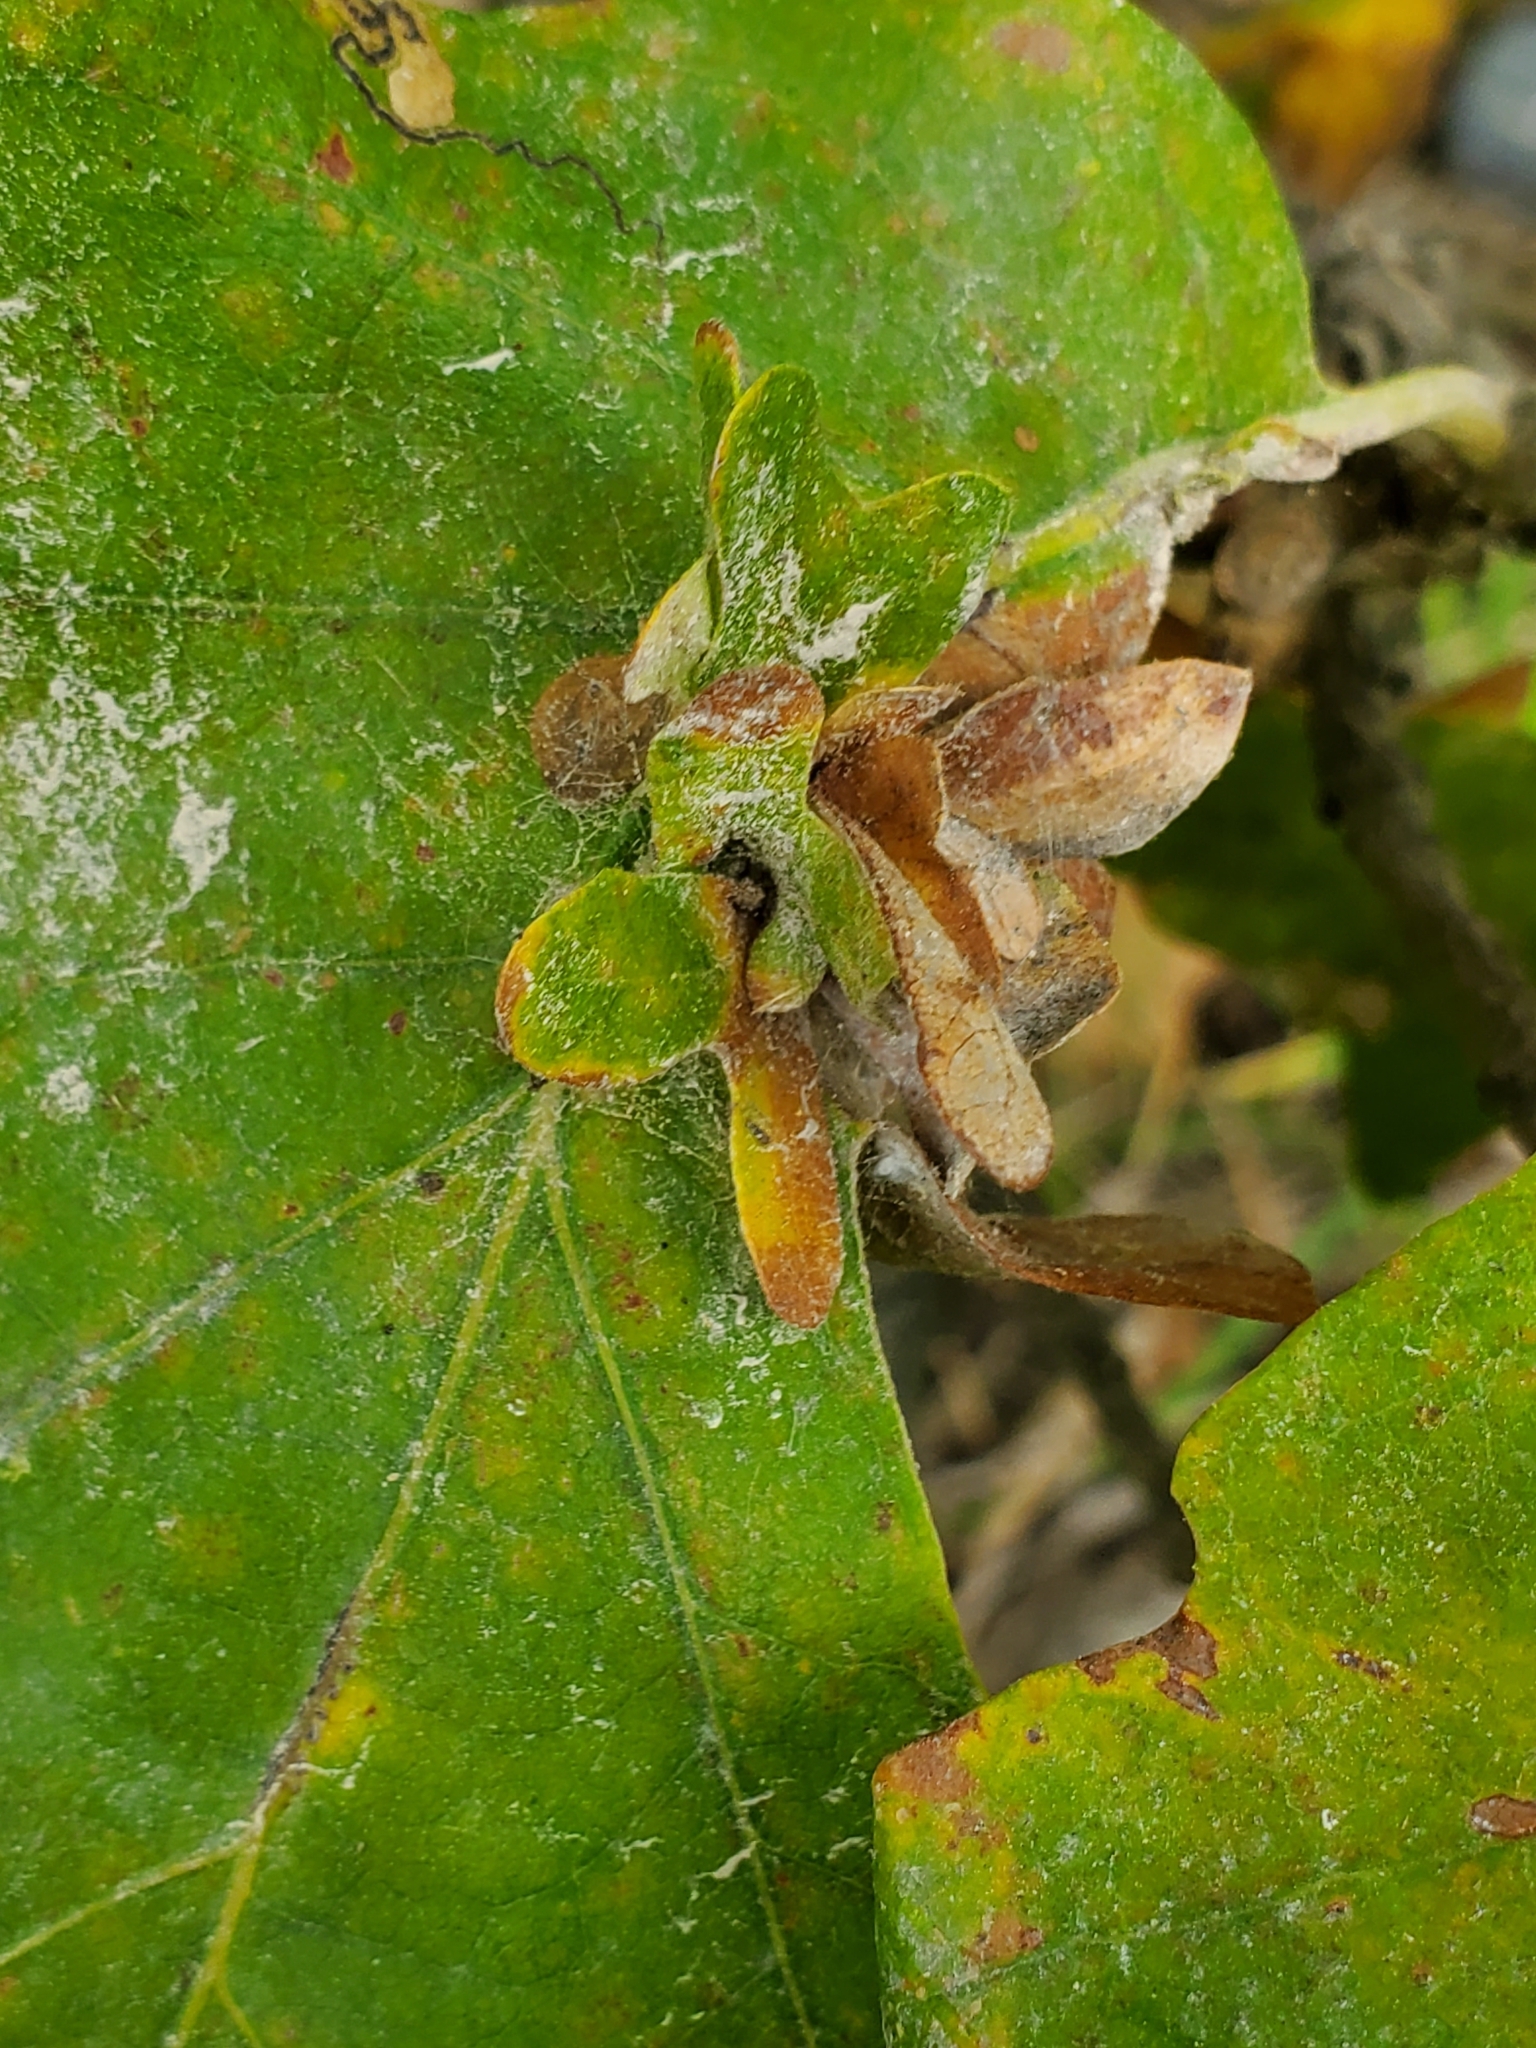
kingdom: Animalia
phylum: Arthropoda
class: Insecta
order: Hymenoptera
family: Cynipidae
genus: Andricus
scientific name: Andricus
